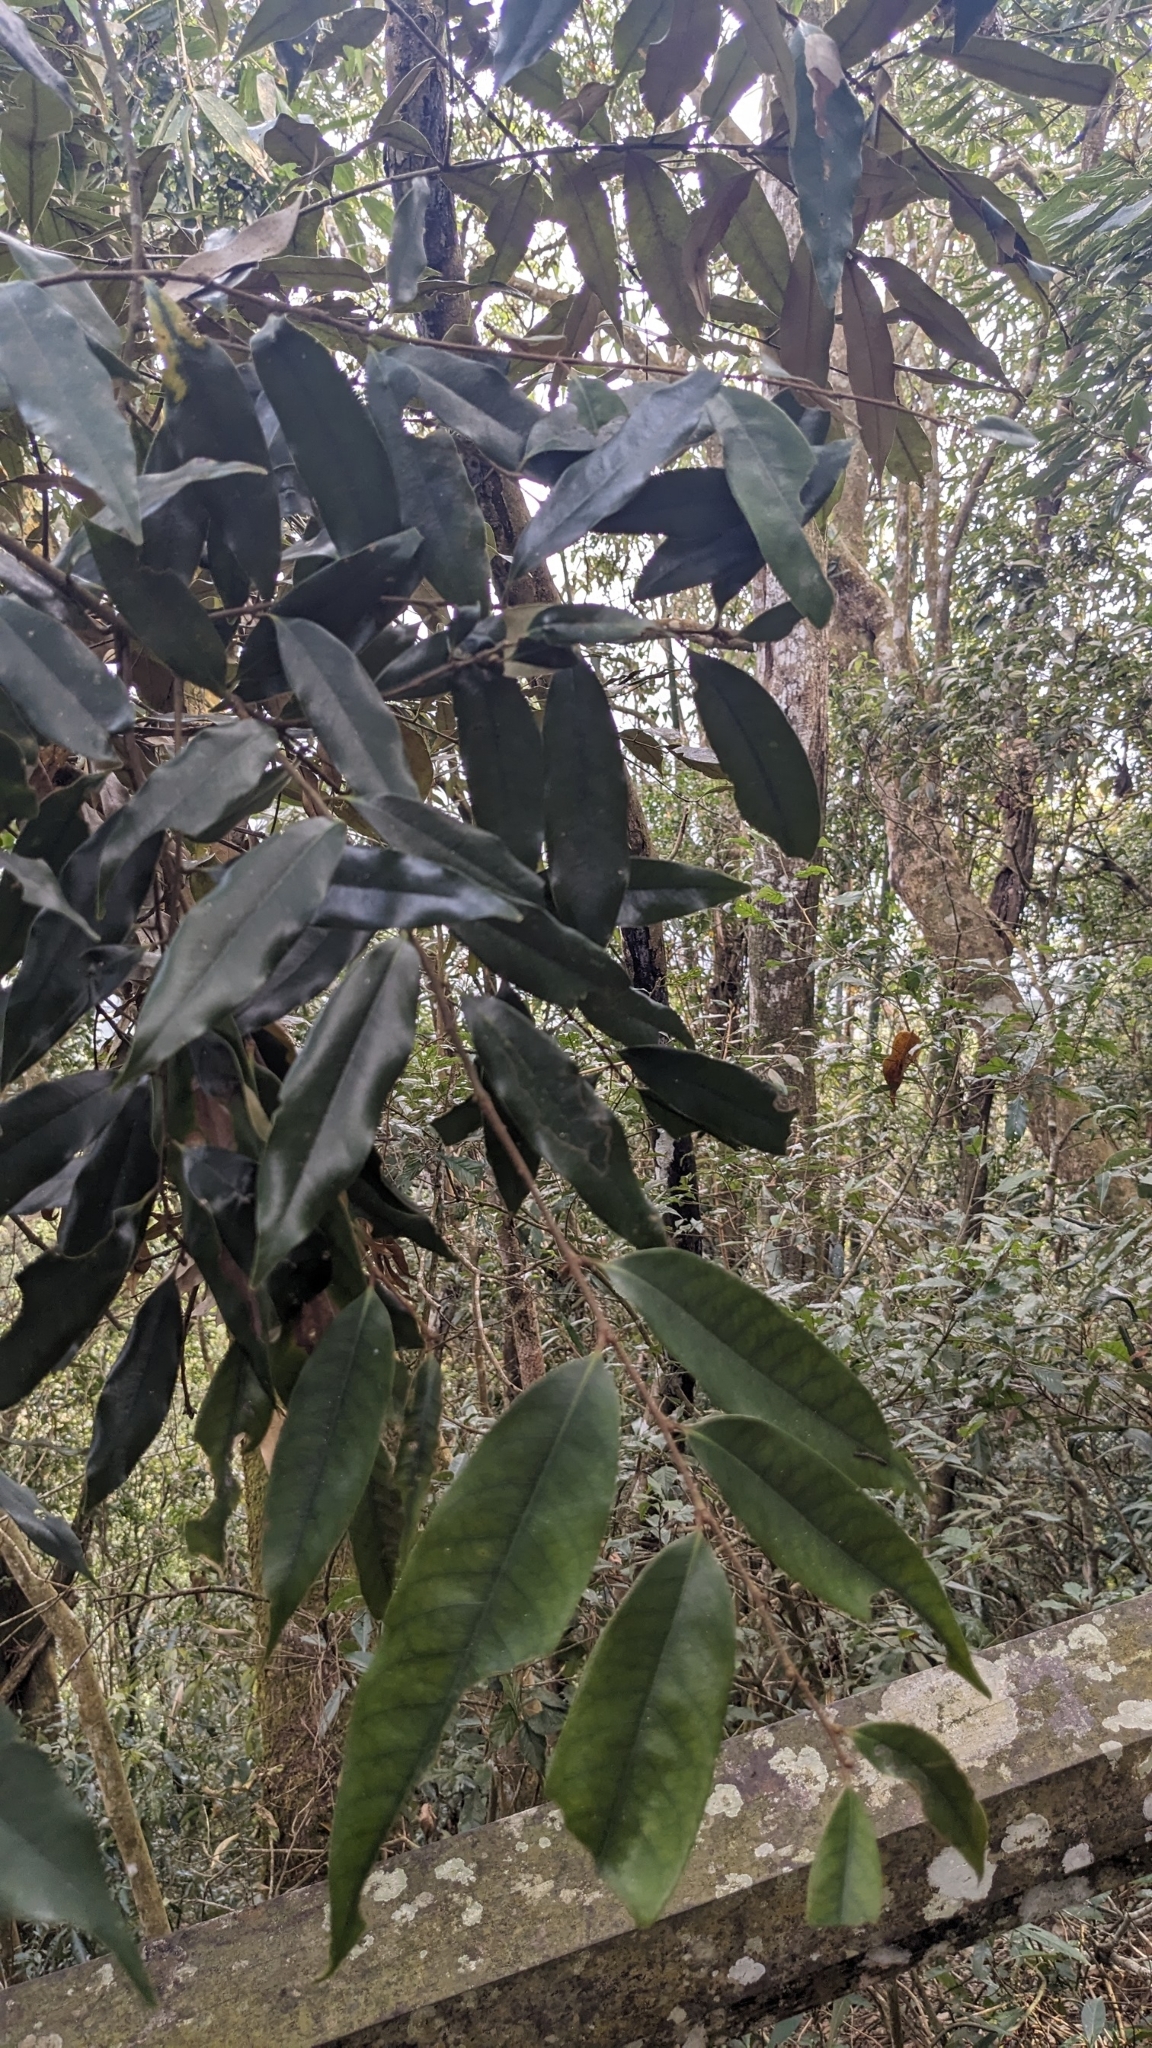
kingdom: Plantae
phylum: Tracheophyta
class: Magnoliopsida
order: Fagales
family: Fagaceae
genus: Castanopsis
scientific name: Castanopsis fargesii
